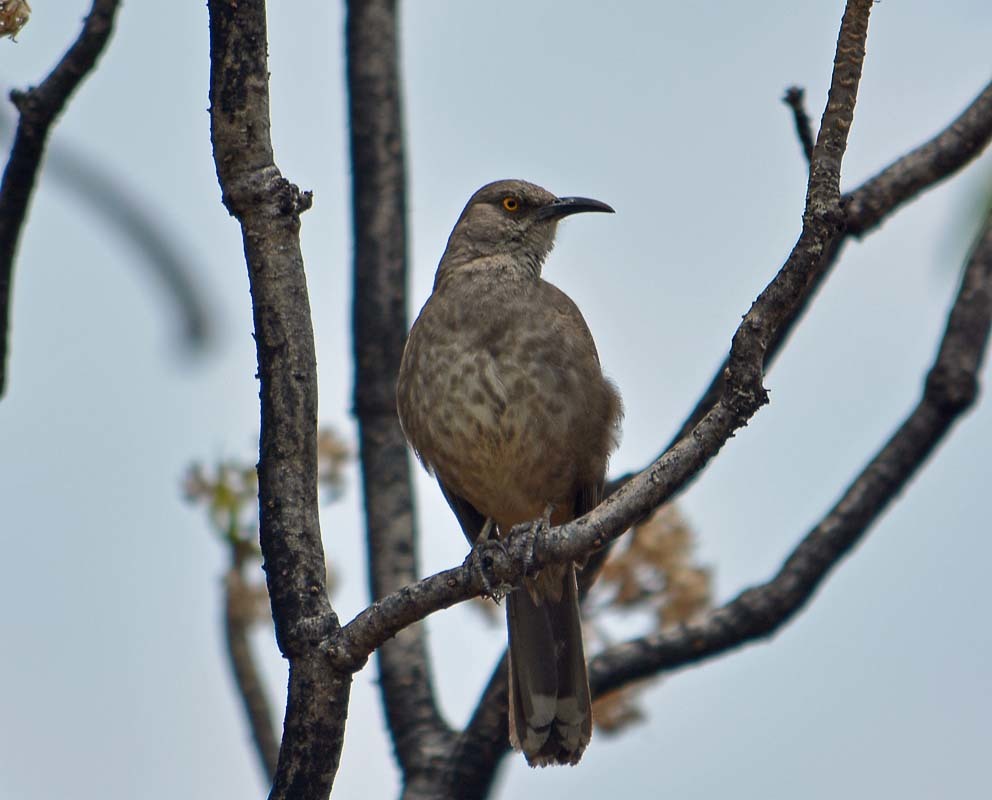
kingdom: Animalia
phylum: Chordata
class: Aves
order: Passeriformes
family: Mimidae
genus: Toxostoma
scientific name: Toxostoma curvirostre
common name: Curve-billed thrasher
